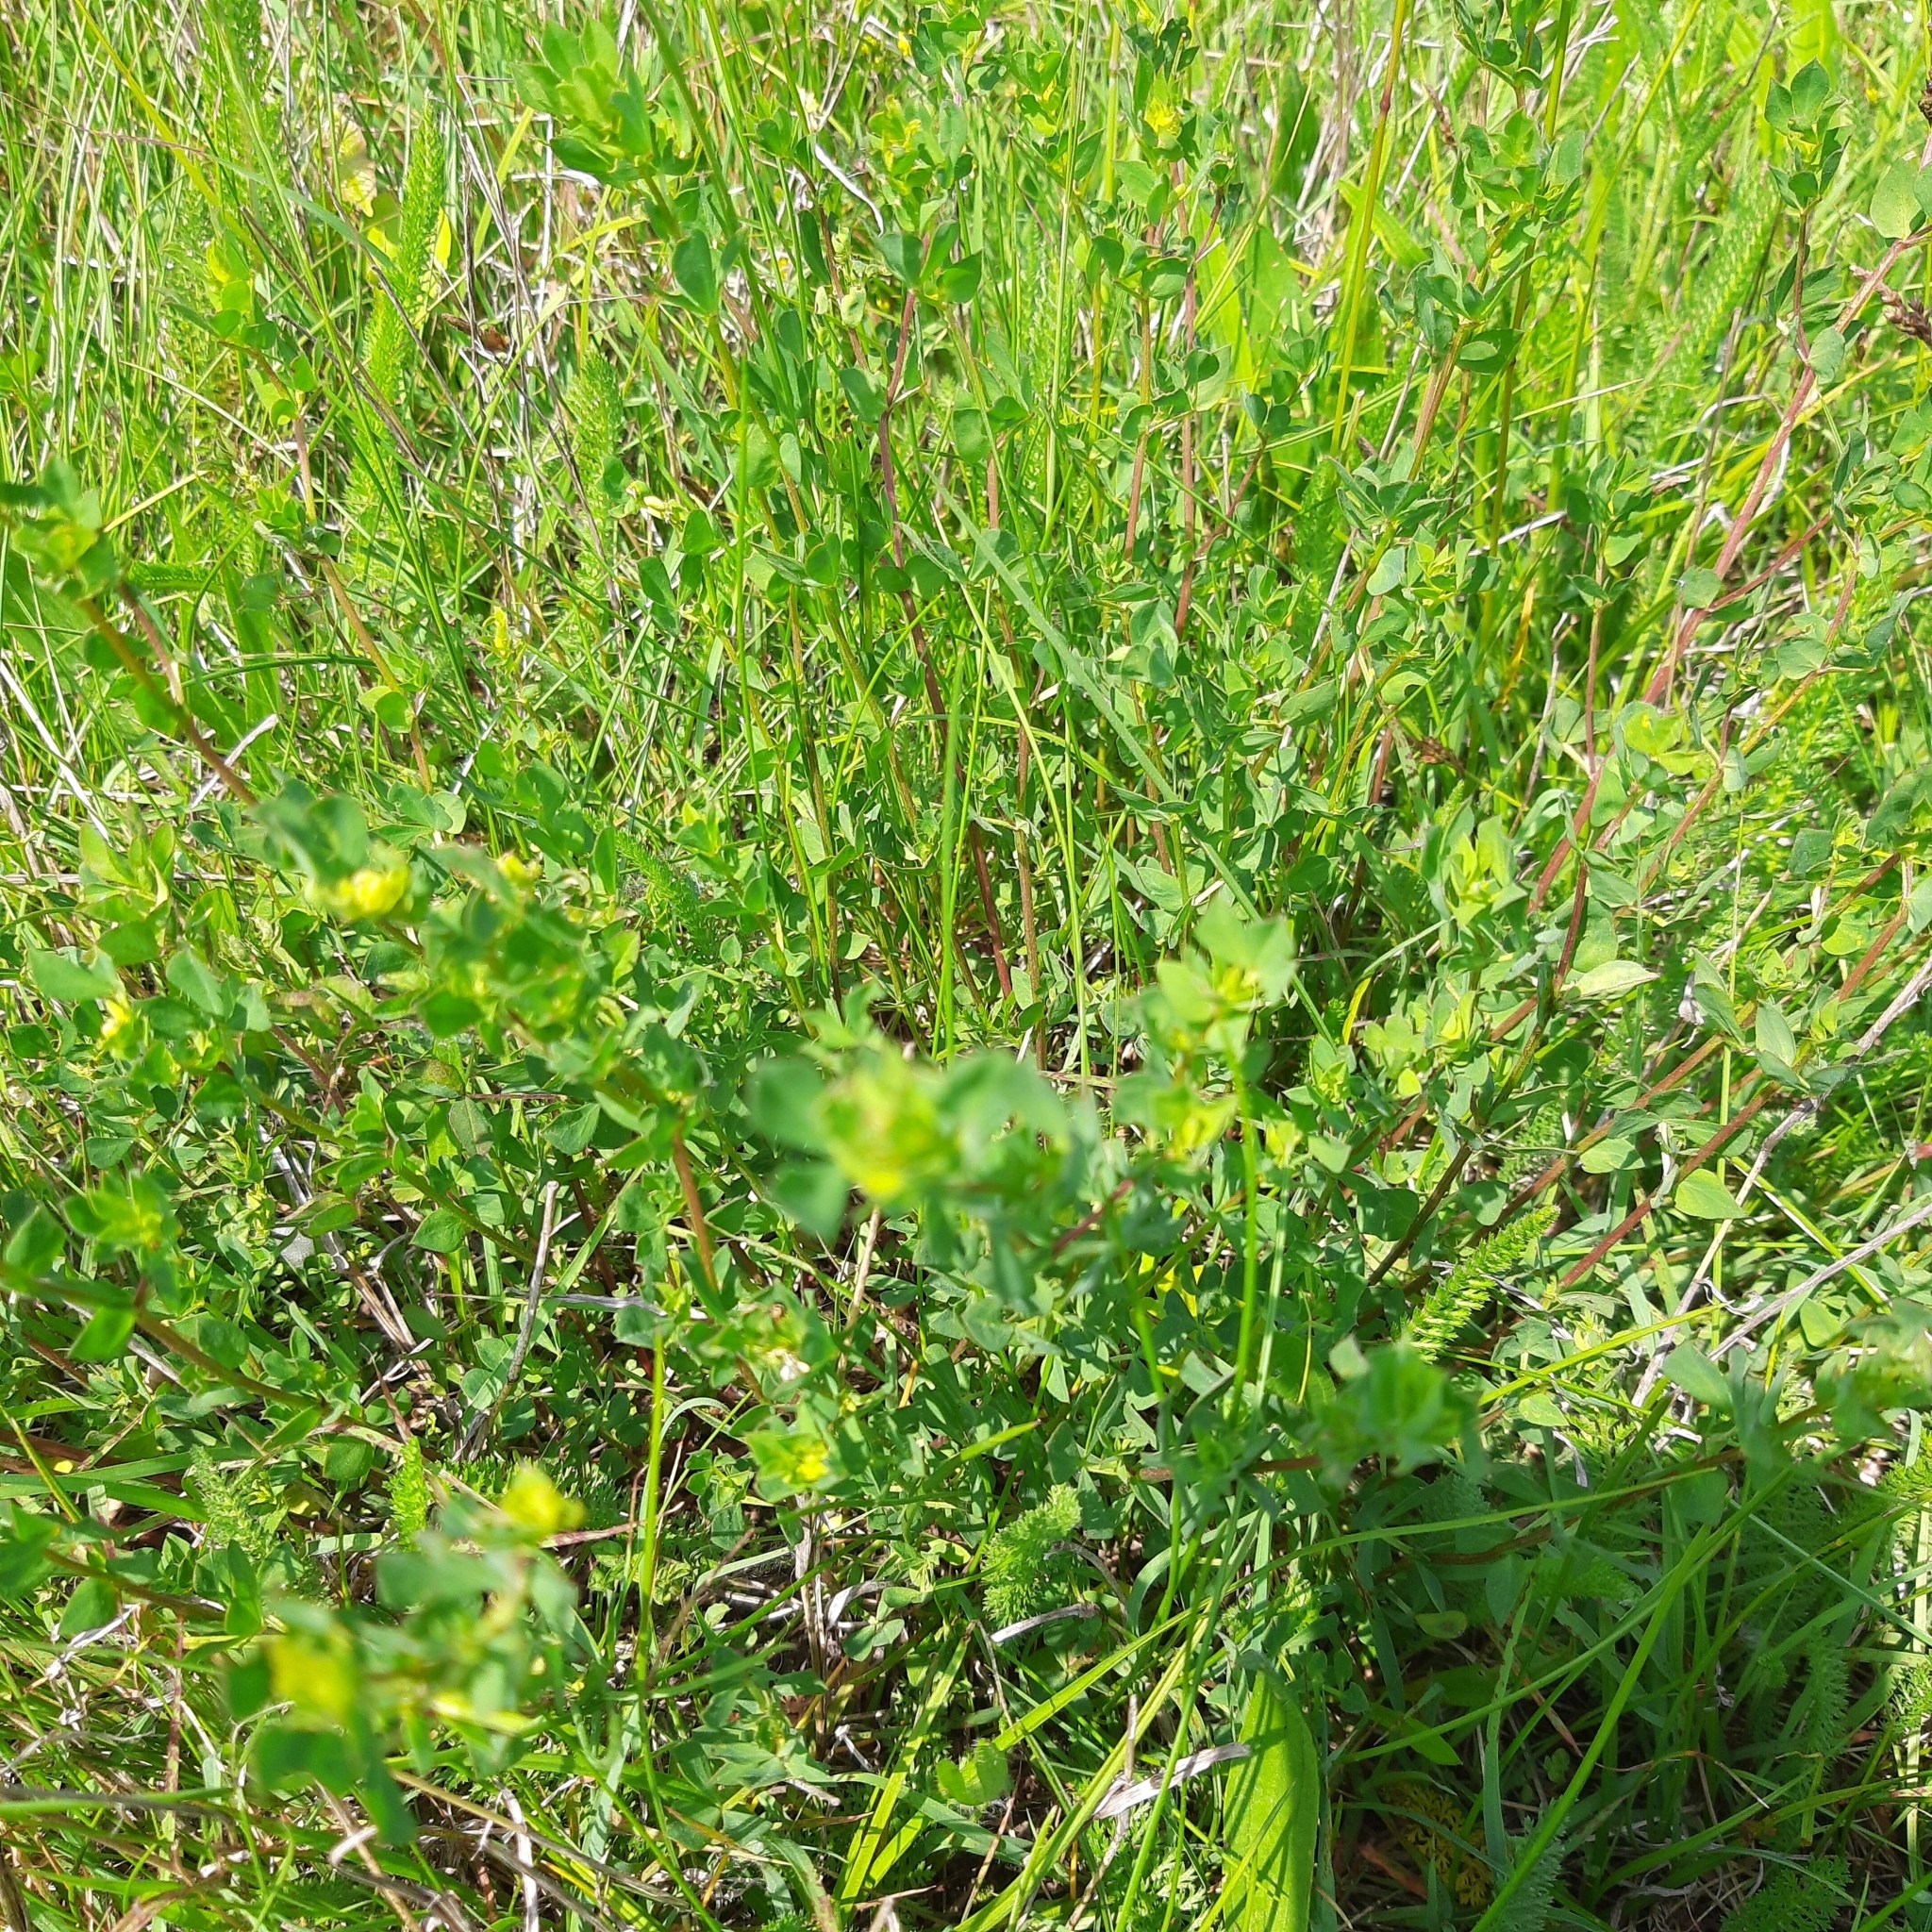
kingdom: Plantae
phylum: Tracheophyta
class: Magnoliopsida
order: Fabales
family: Fabaceae
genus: Lotus
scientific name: Lotus corniculatus
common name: Common bird's-foot-trefoil
